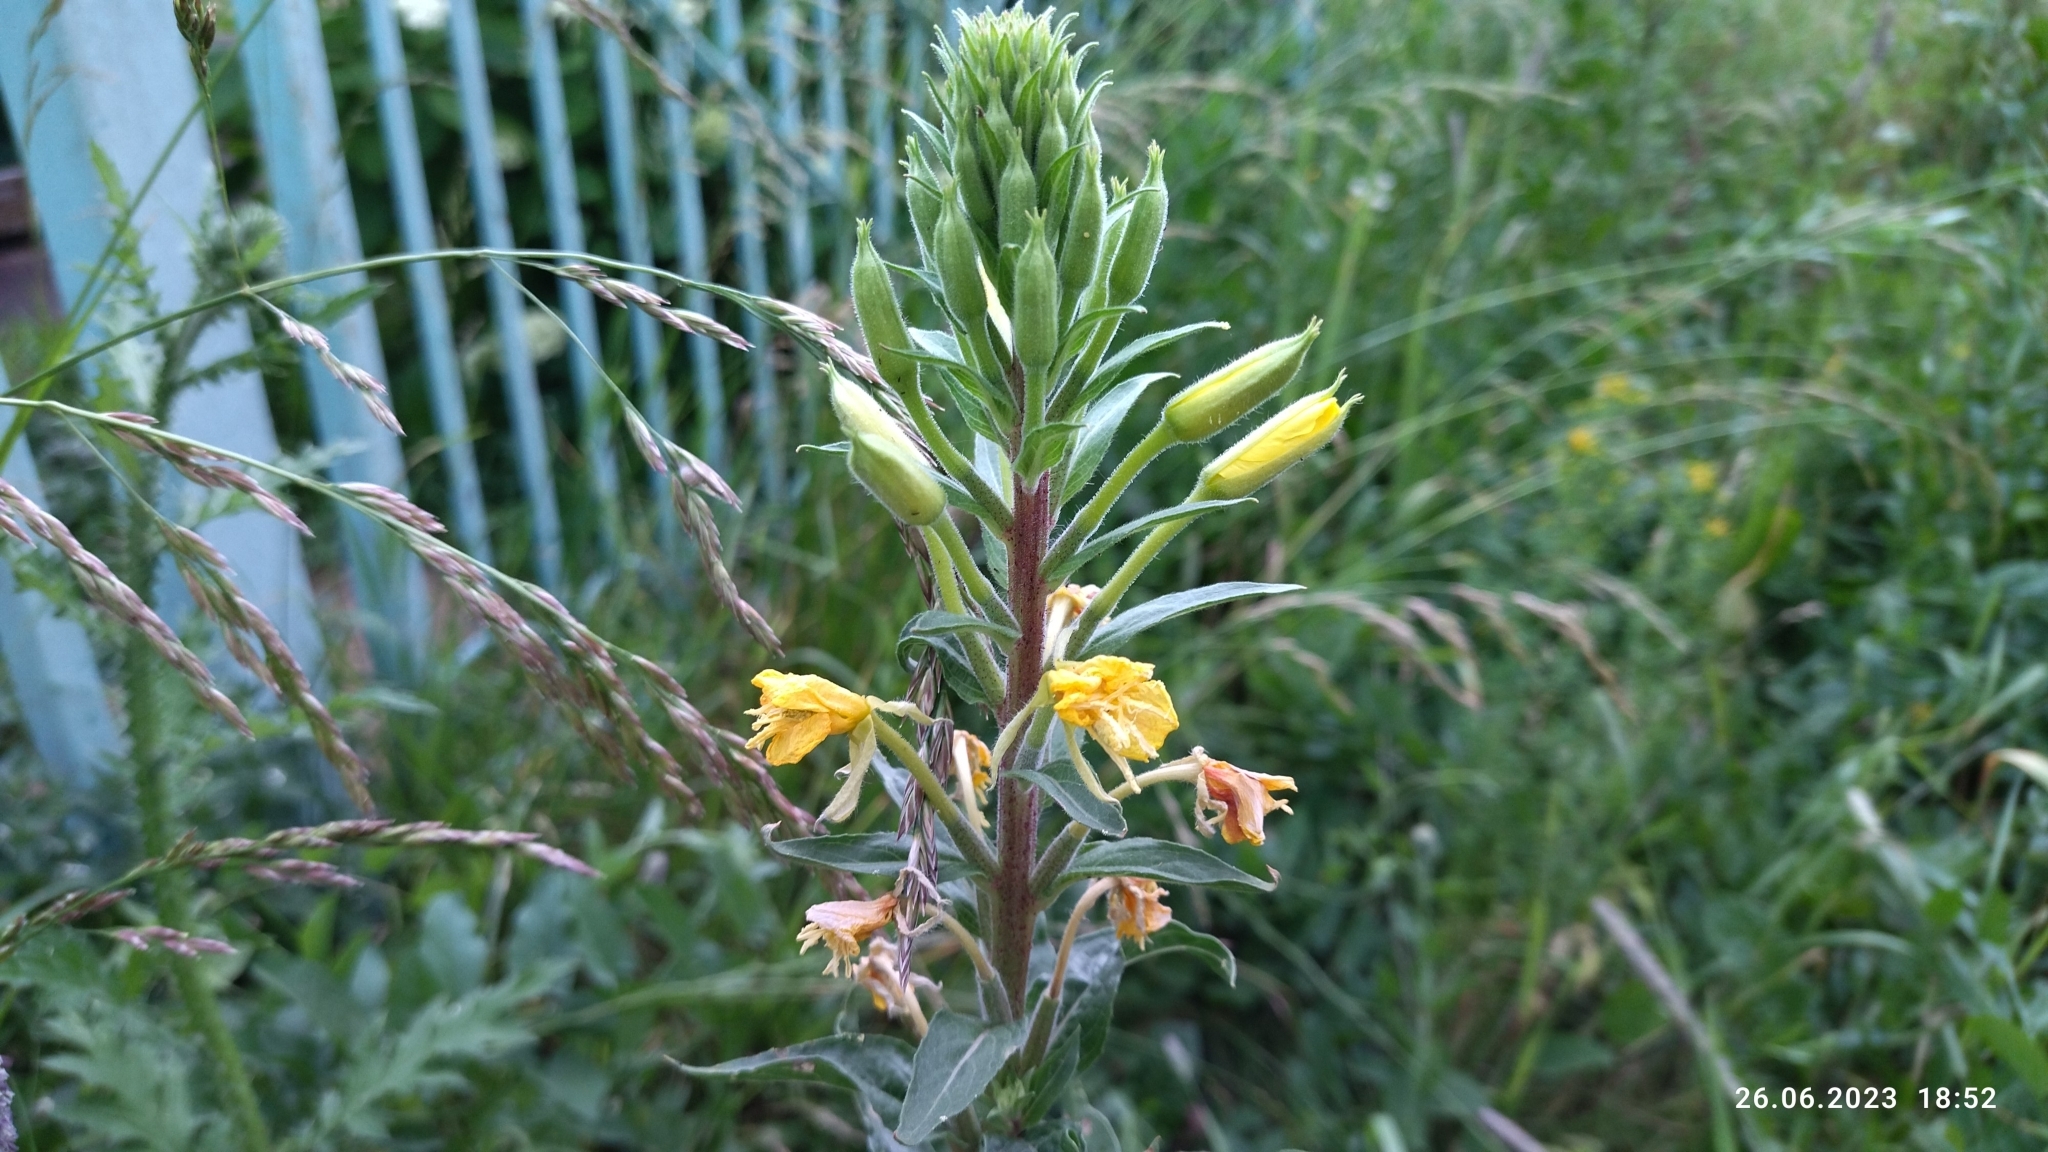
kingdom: Plantae
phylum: Tracheophyta
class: Magnoliopsida
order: Myrtales
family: Onagraceae
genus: Oenothera
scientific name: Oenothera rubricaulis
